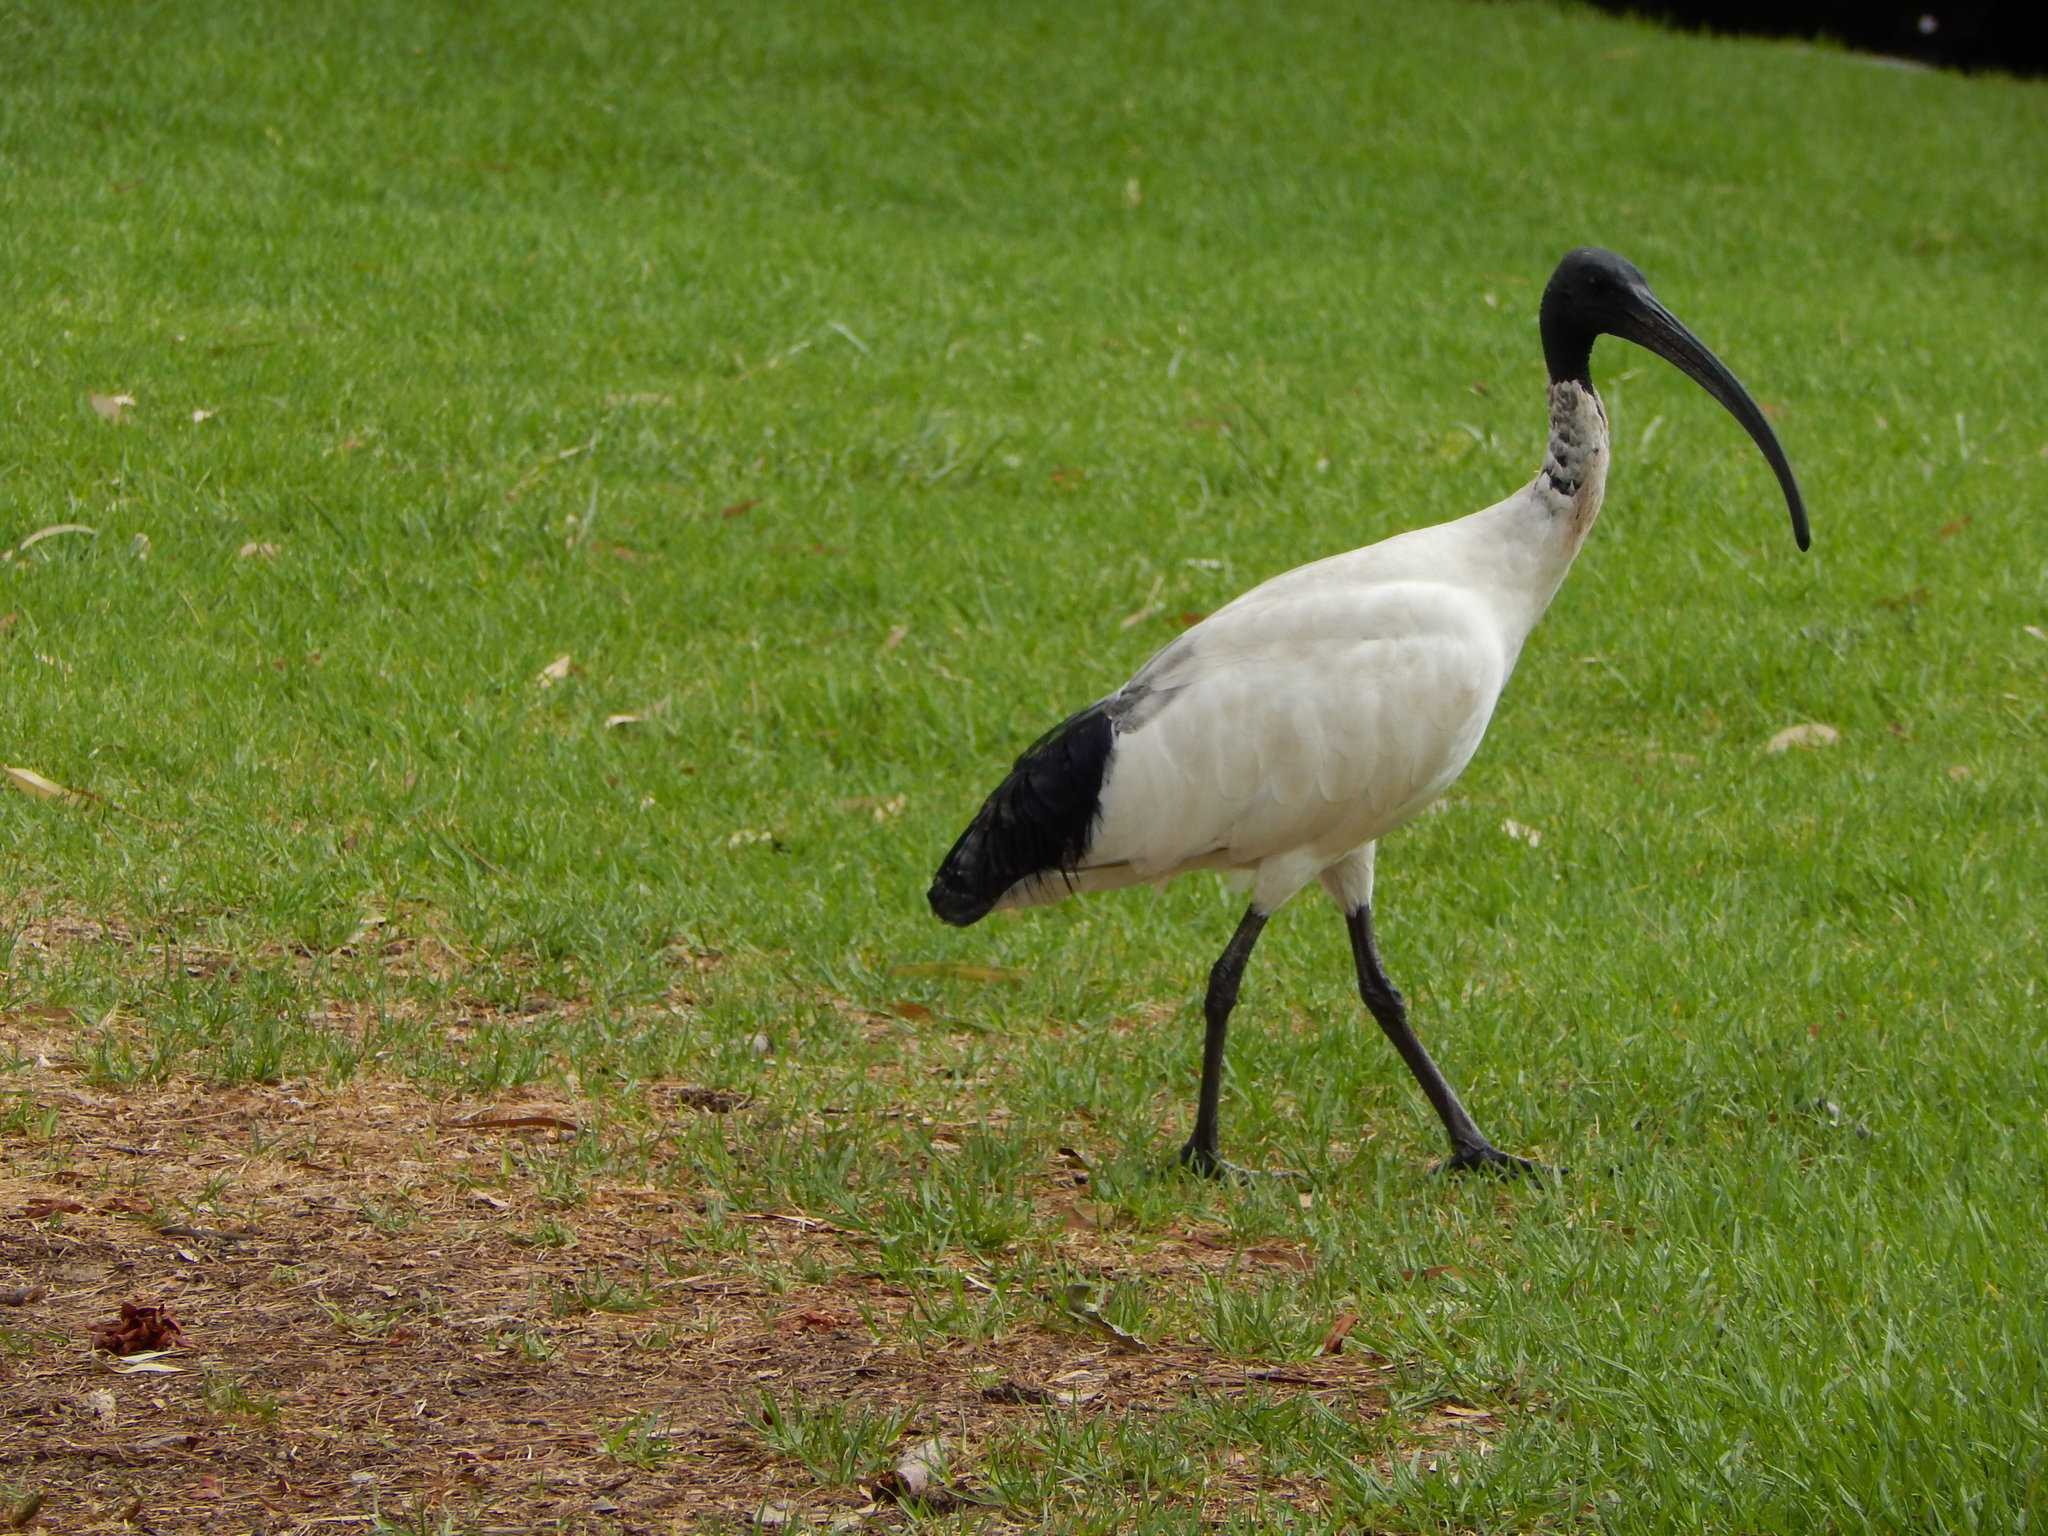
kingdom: Animalia
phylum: Chordata
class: Aves
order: Pelecaniformes
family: Threskiornithidae
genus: Threskiornis
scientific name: Threskiornis molucca
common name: Australian white ibis
